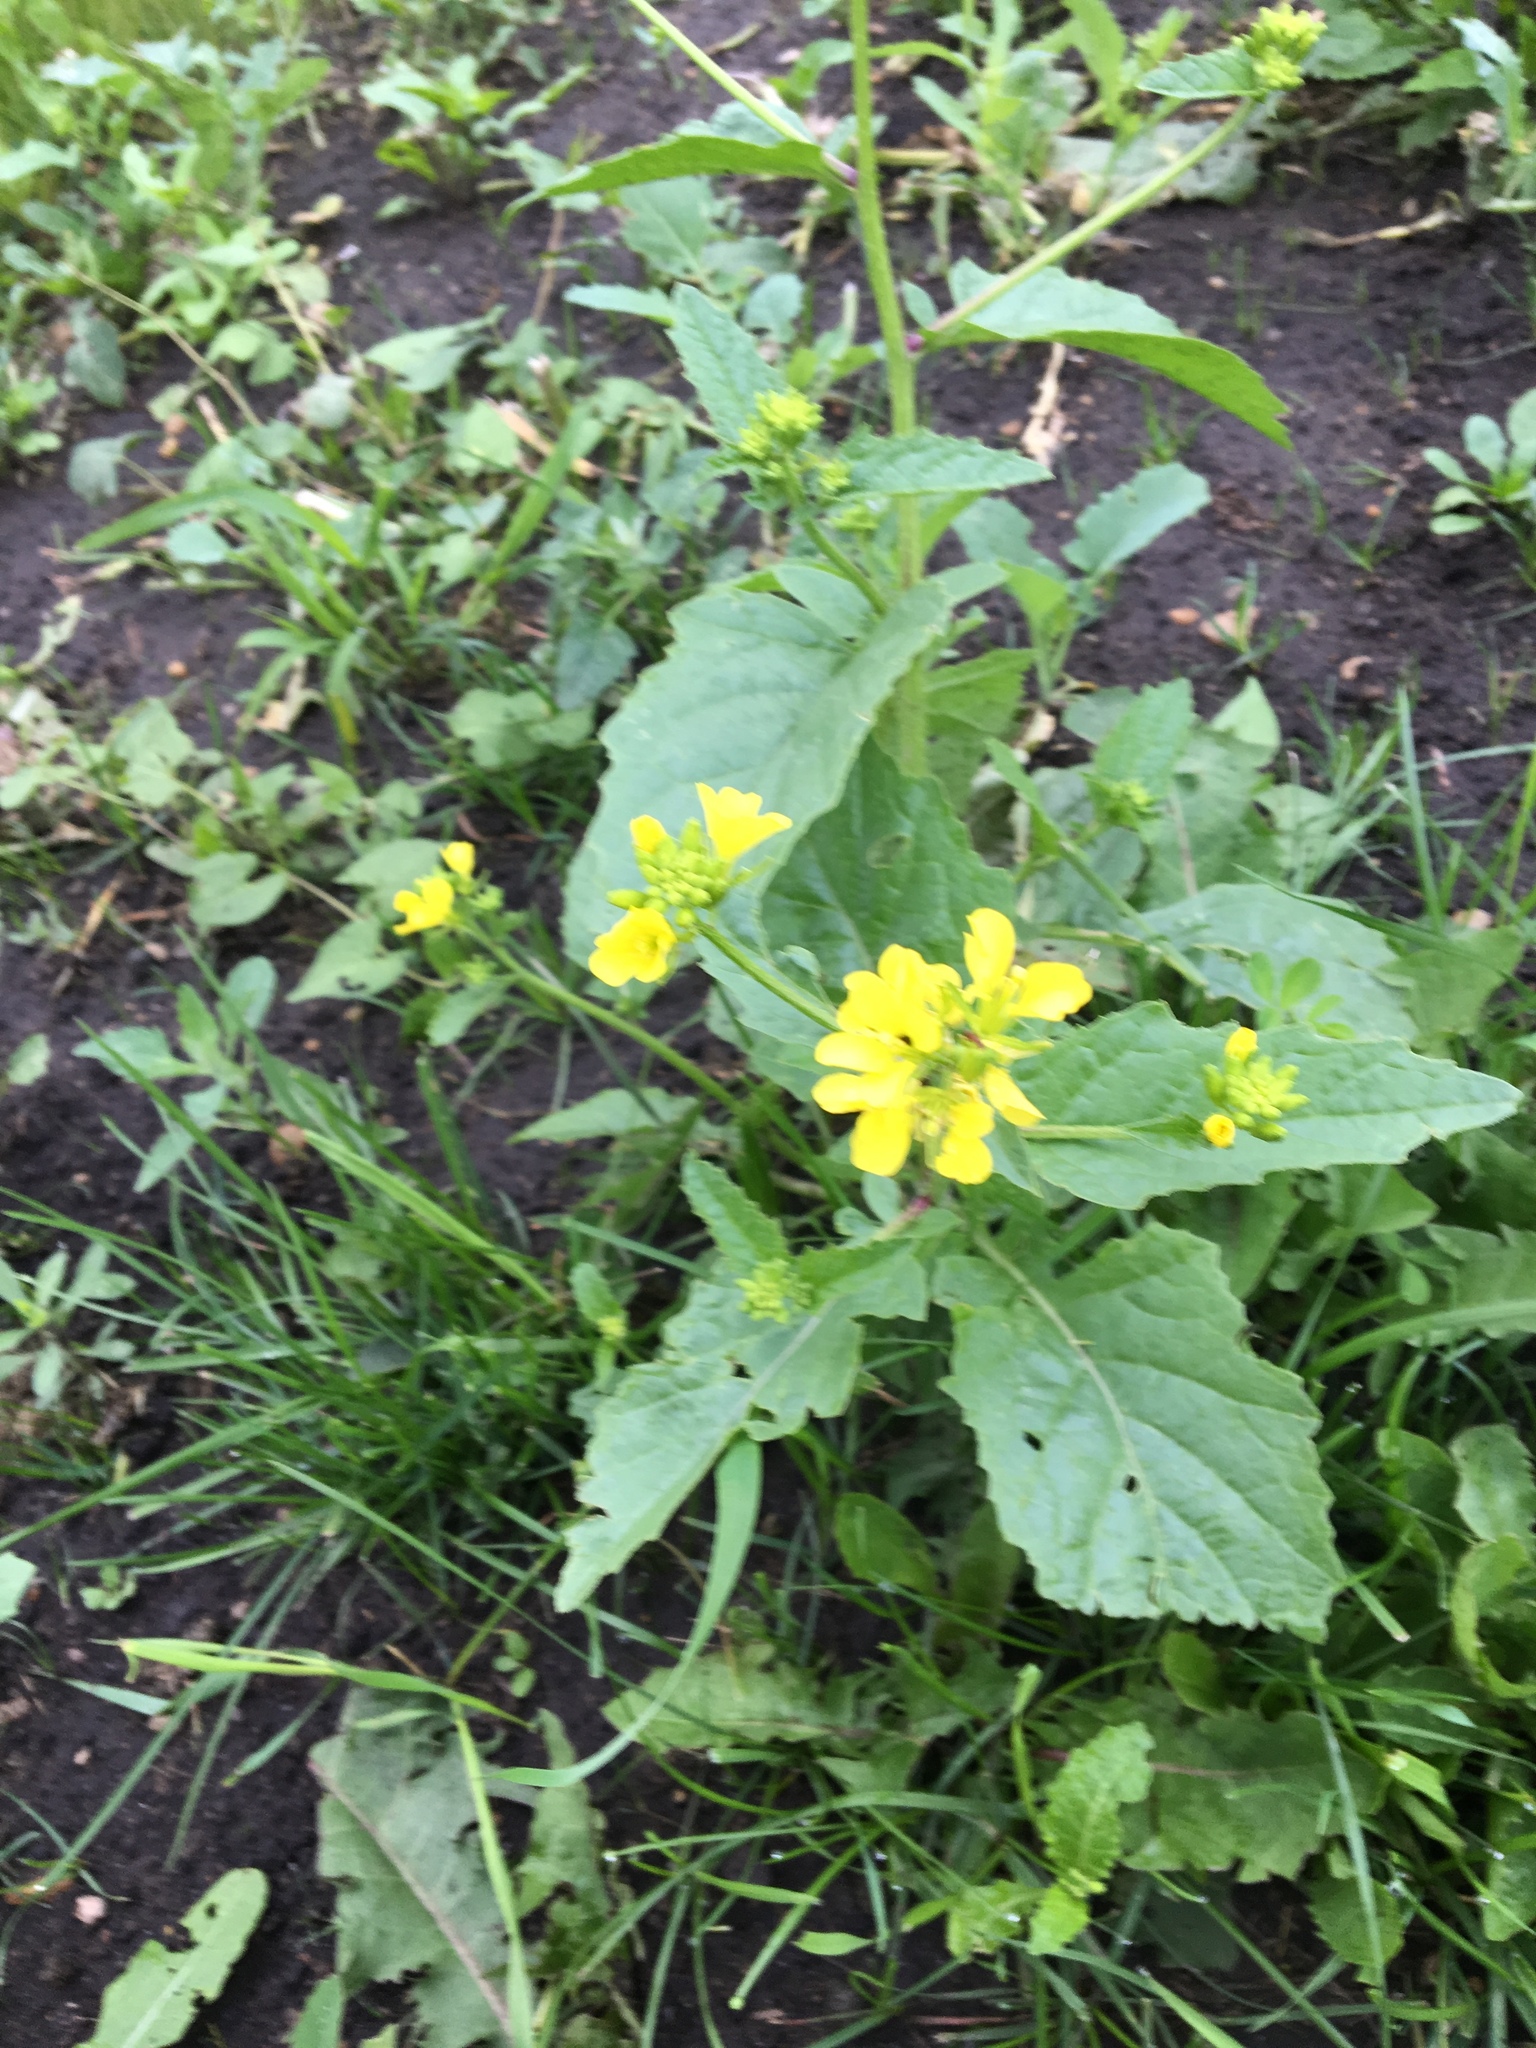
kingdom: Plantae
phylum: Tracheophyta
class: Magnoliopsida
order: Brassicales
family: Brassicaceae
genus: Sinapis
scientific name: Sinapis arvensis
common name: Charlock
